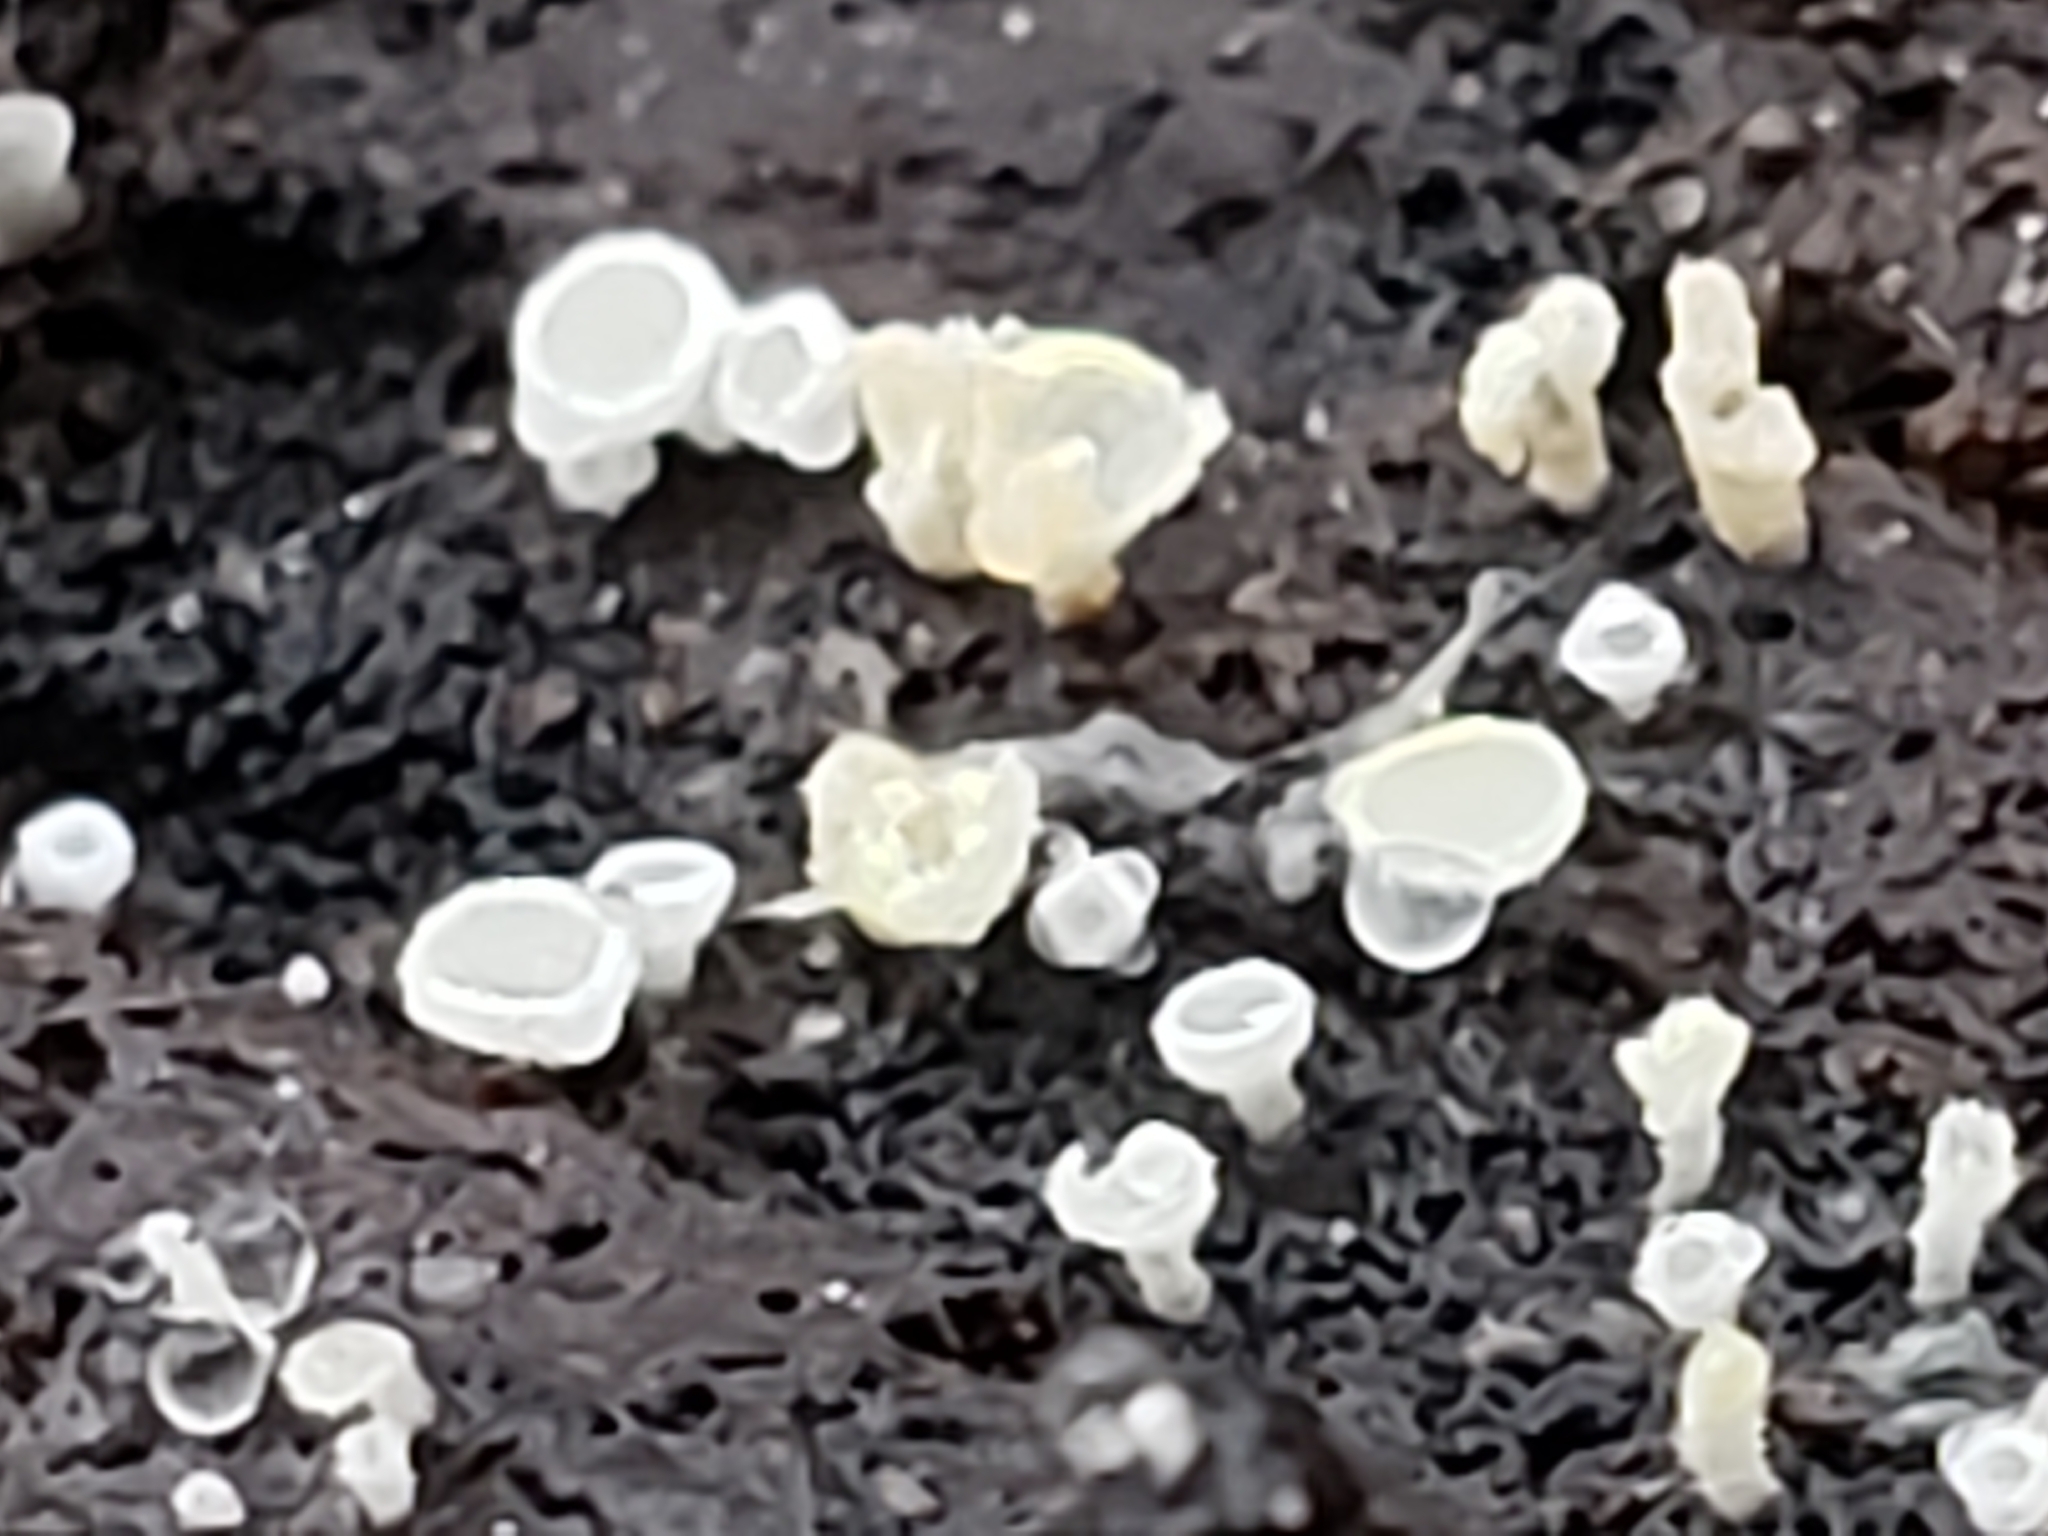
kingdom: Fungi
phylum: Ascomycota
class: Leotiomycetes
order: Helotiales
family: Lachnaceae
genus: Lachnum
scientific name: Lachnum virgineum
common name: Snowy disco
